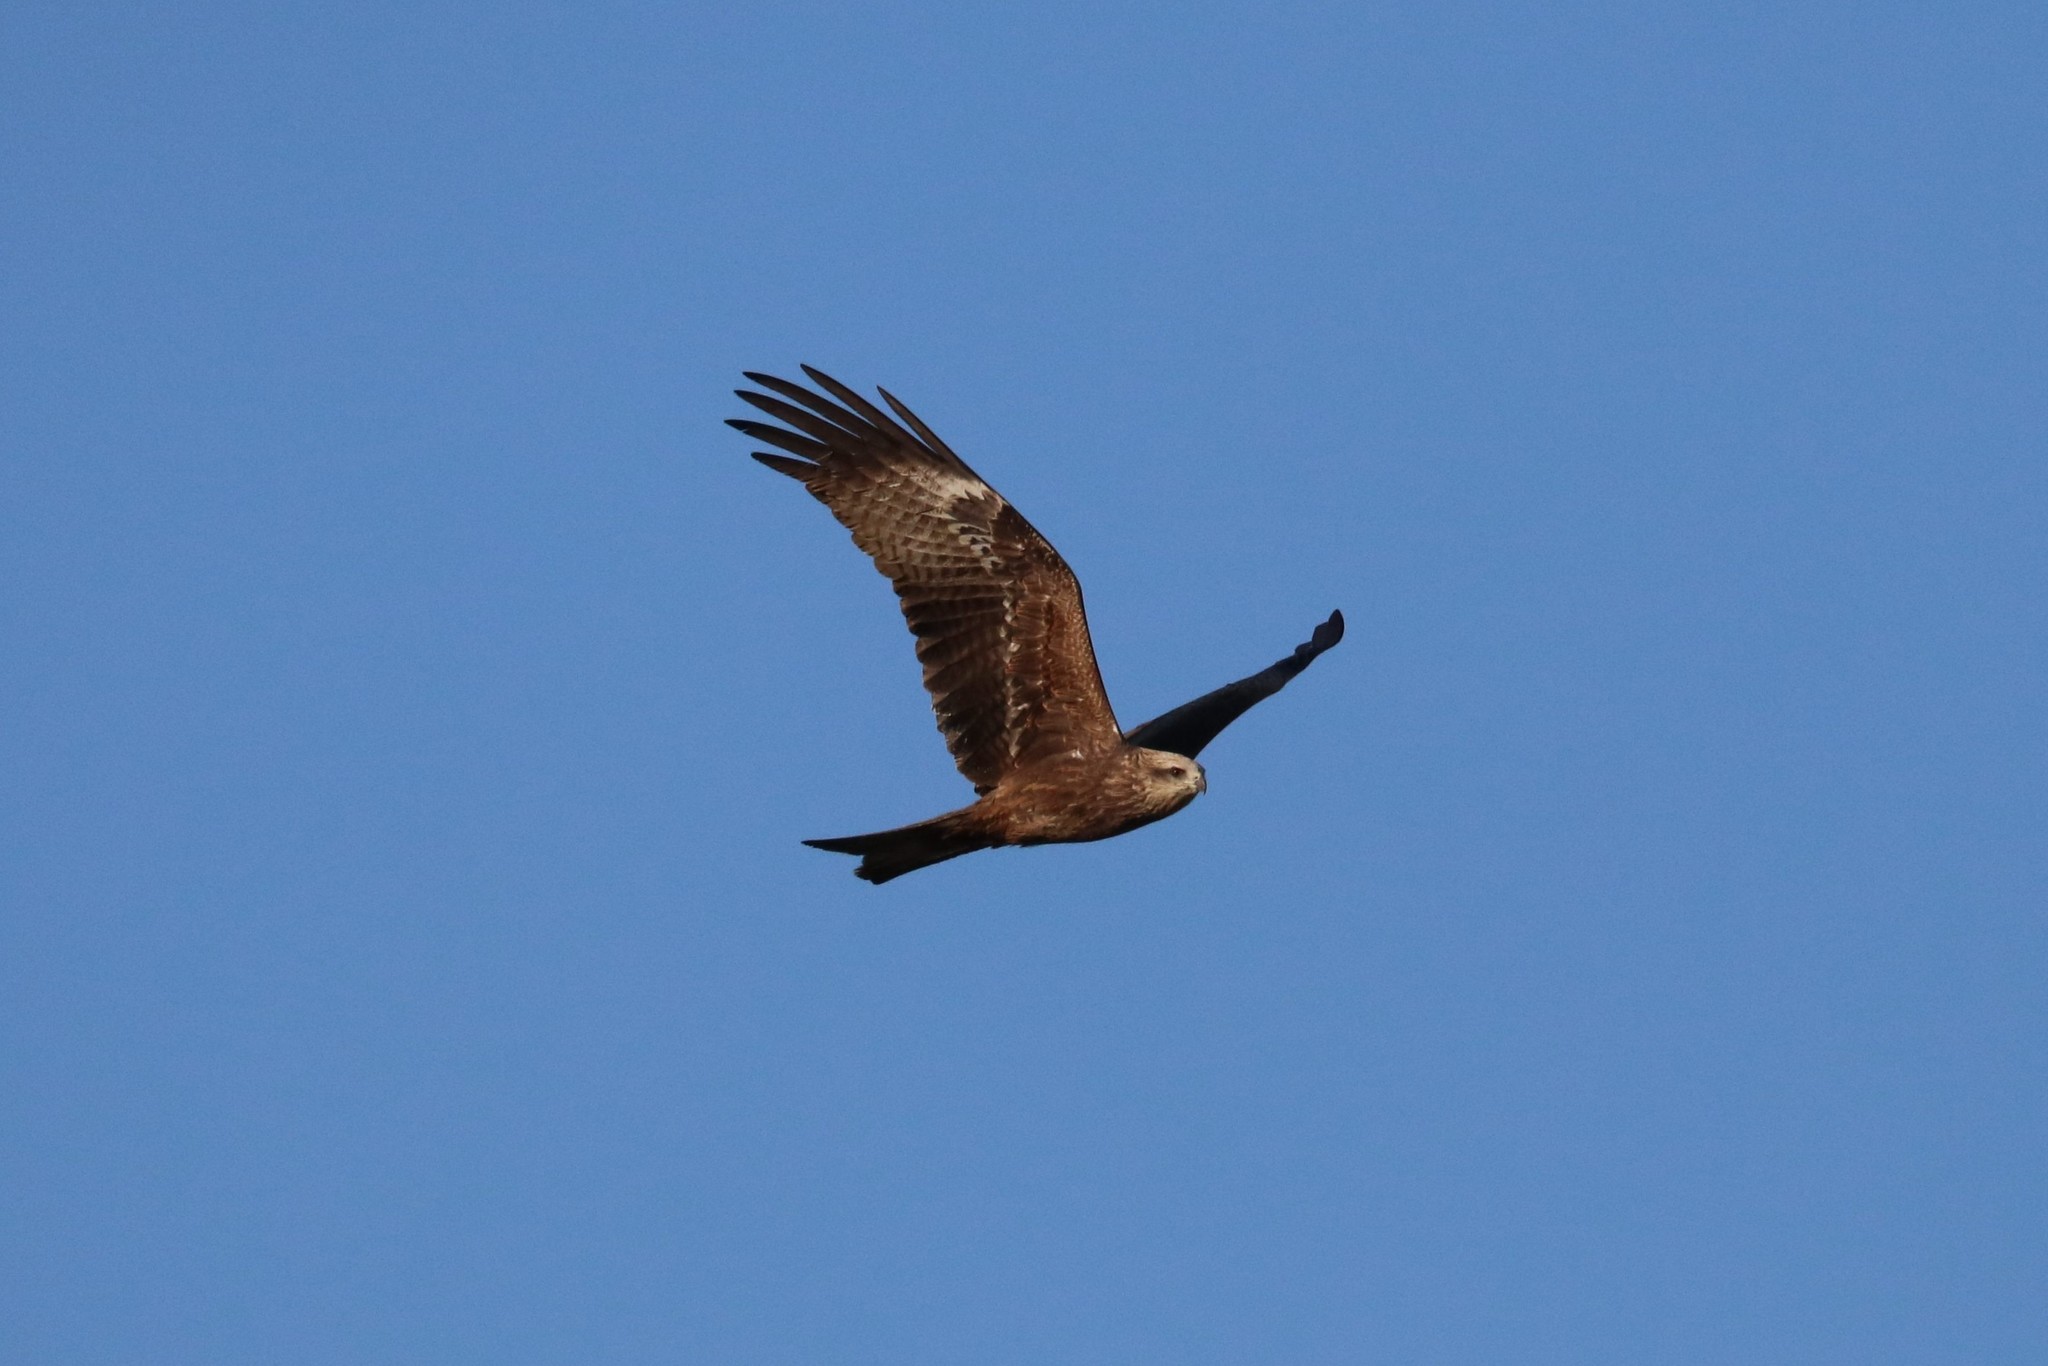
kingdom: Animalia
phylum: Chordata
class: Aves
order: Accipitriformes
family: Accipitridae
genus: Milvus
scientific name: Milvus migrans
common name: Black kite
